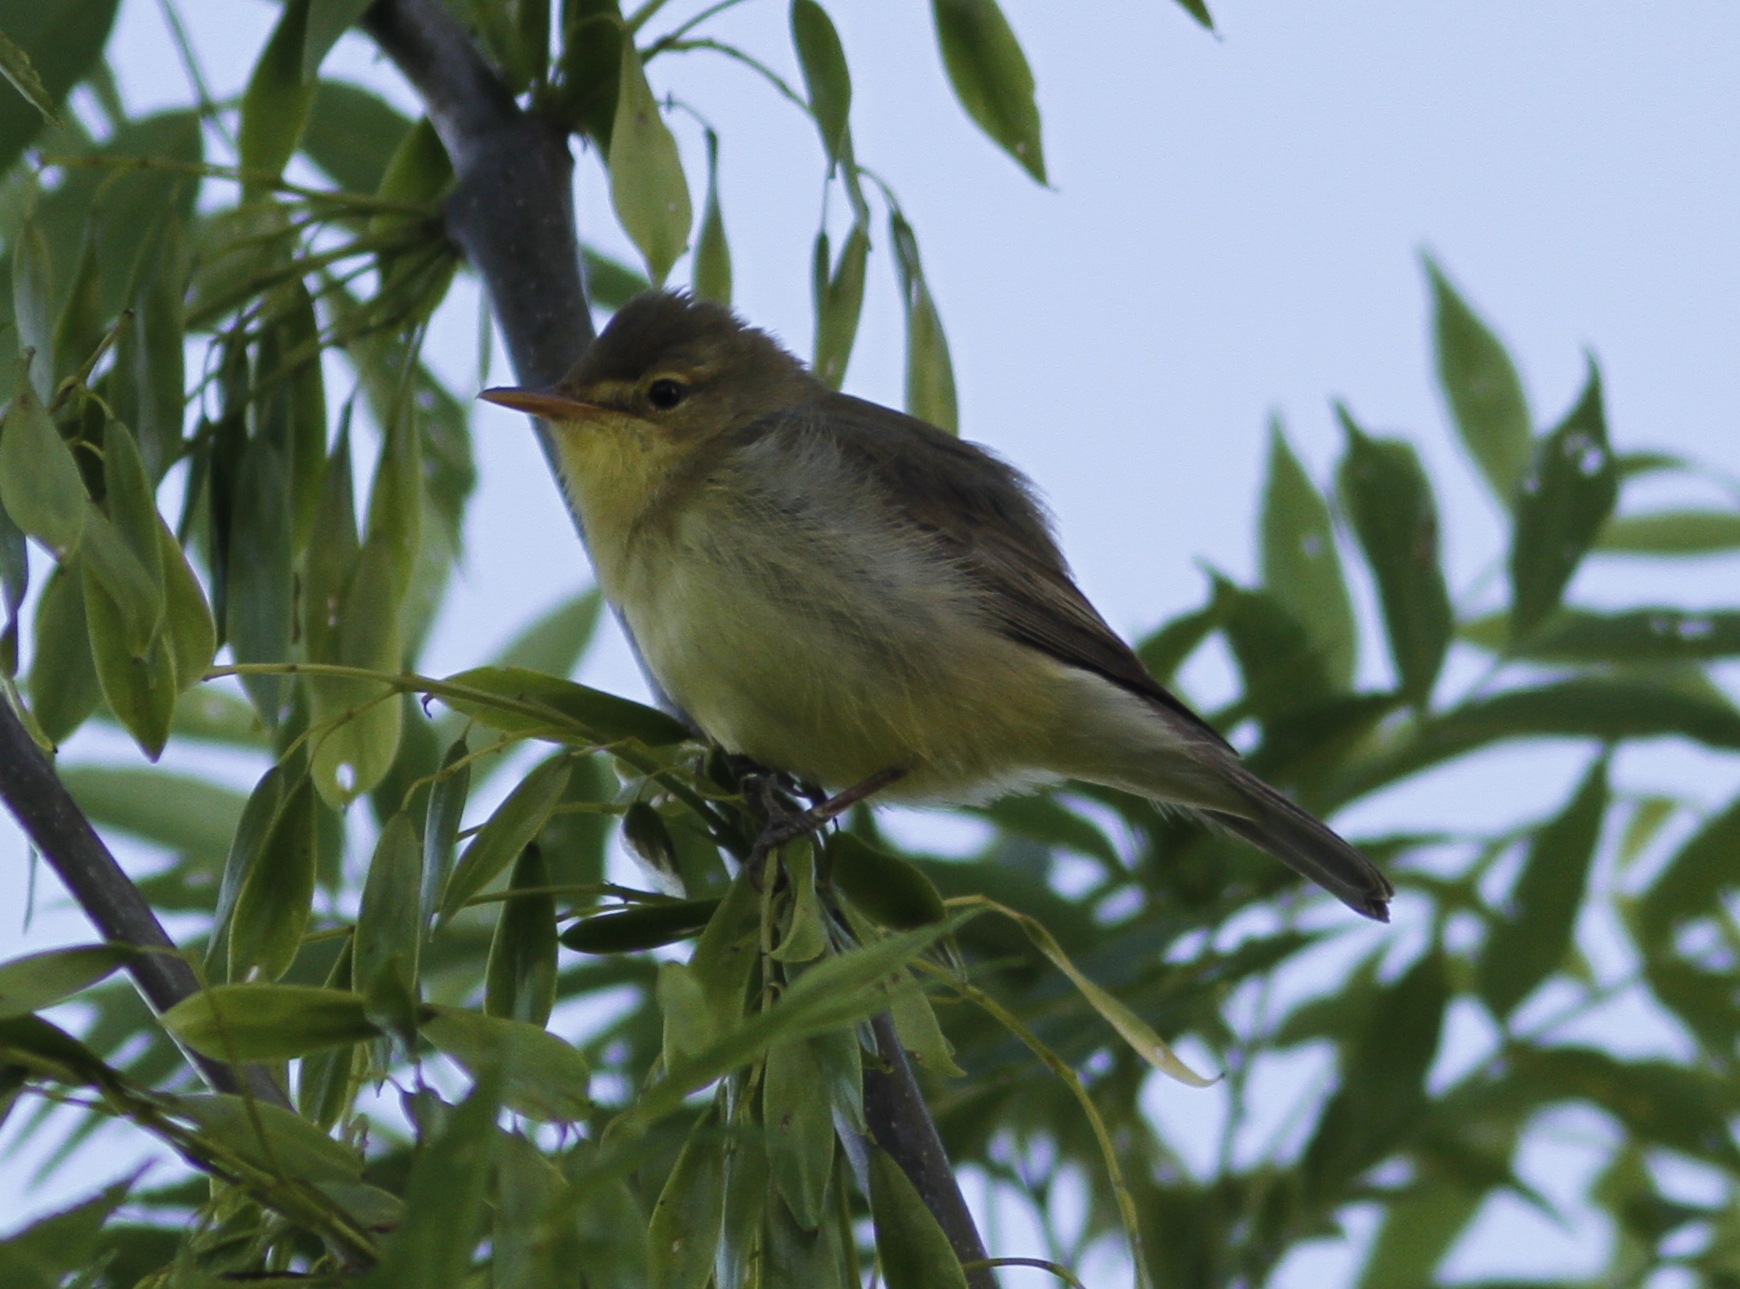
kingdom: Animalia
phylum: Chordata
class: Aves
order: Passeriformes
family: Acrocephalidae
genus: Hippolais
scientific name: Hippolais polyglotta
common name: Melodious warbler
